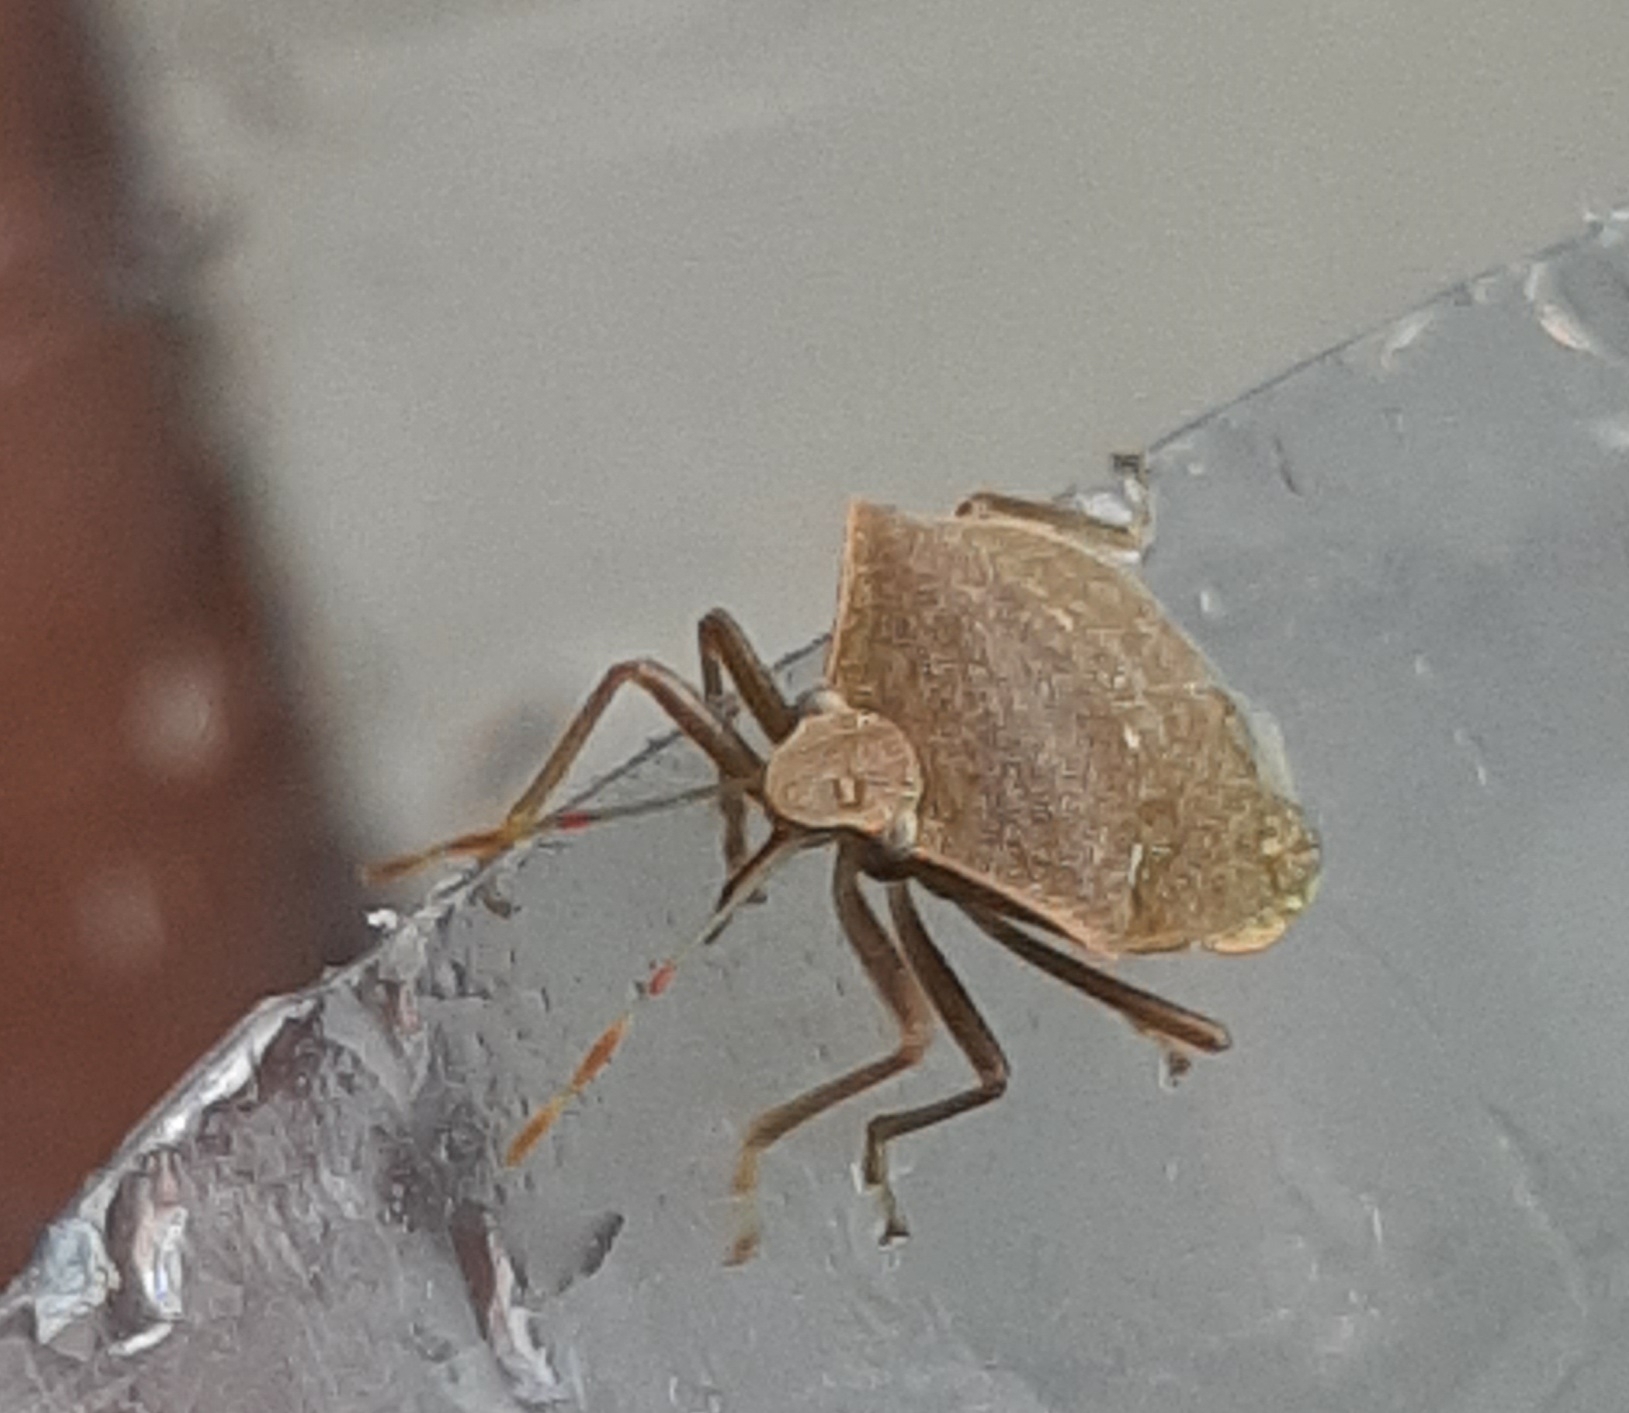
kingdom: Animalia
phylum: Arthropoda
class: Insecta
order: Hemiptera
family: Pentatomidae
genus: Nezara
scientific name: Nezara viridula
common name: Southern green stink bug
